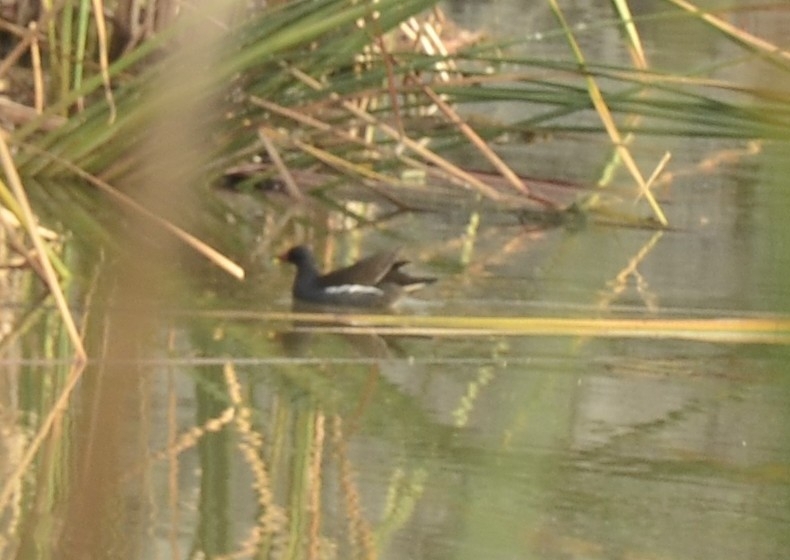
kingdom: Animalia
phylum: Chordata
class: Aves
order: Gruiformes
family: Rallidae
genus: Gallinula
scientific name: Gallinula chloropus
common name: Common moorhen
